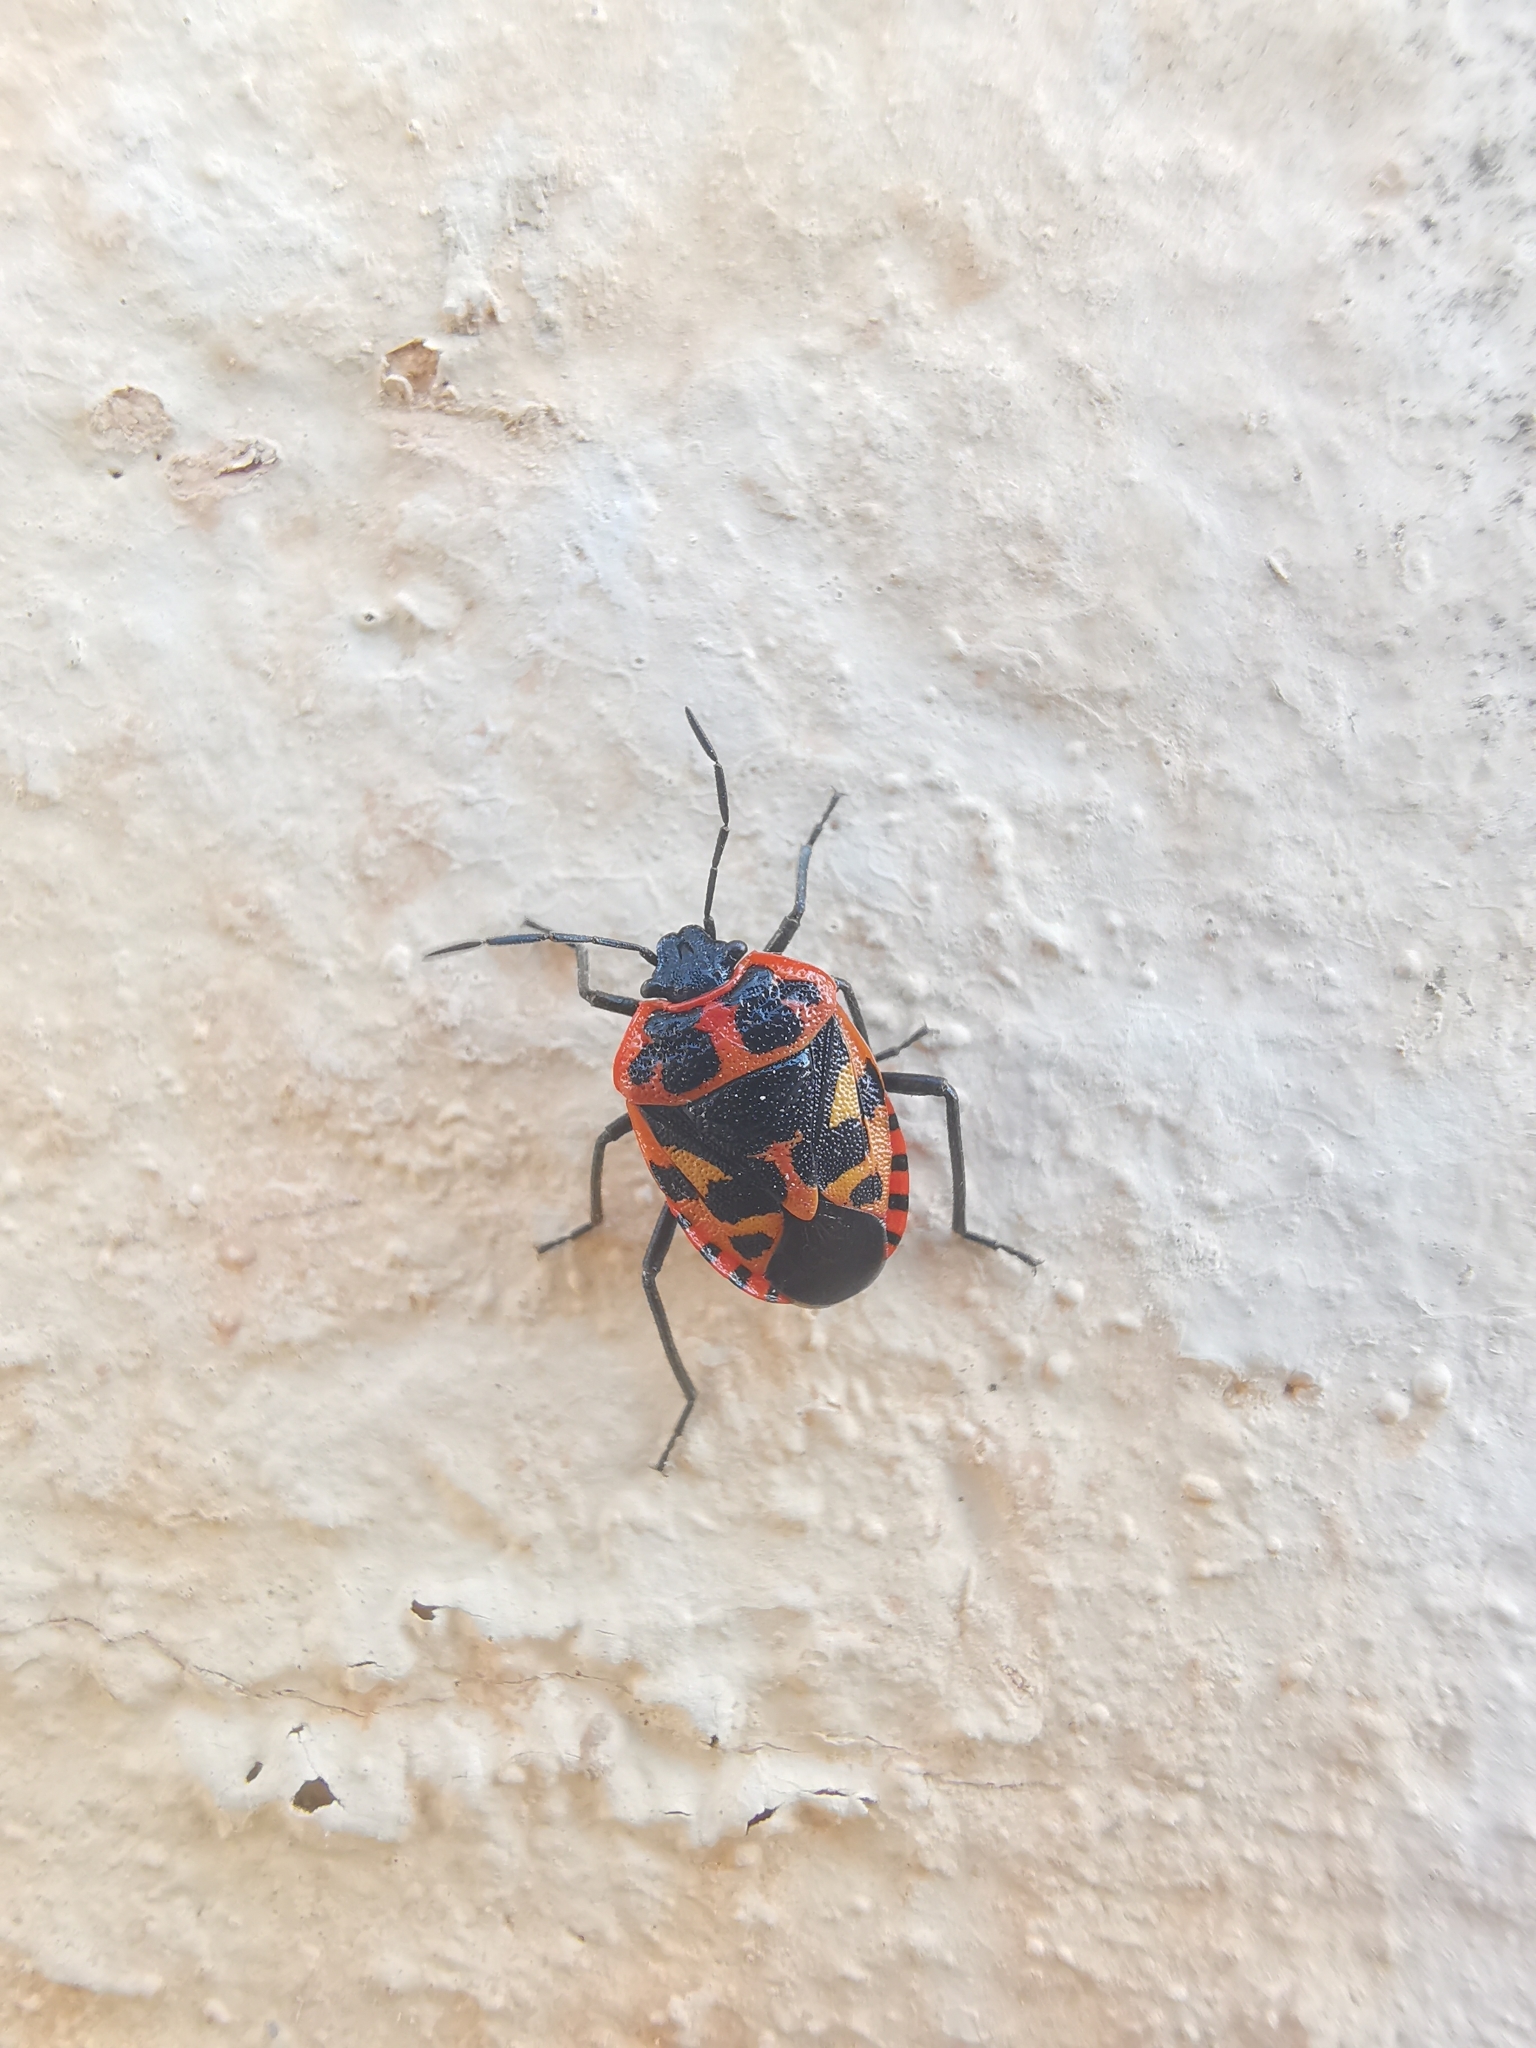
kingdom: Animalia
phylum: Arthropoda
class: Insecta
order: Hemiptera
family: Pentatomidae
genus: Eurydema
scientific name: Eurydema eckerleini
